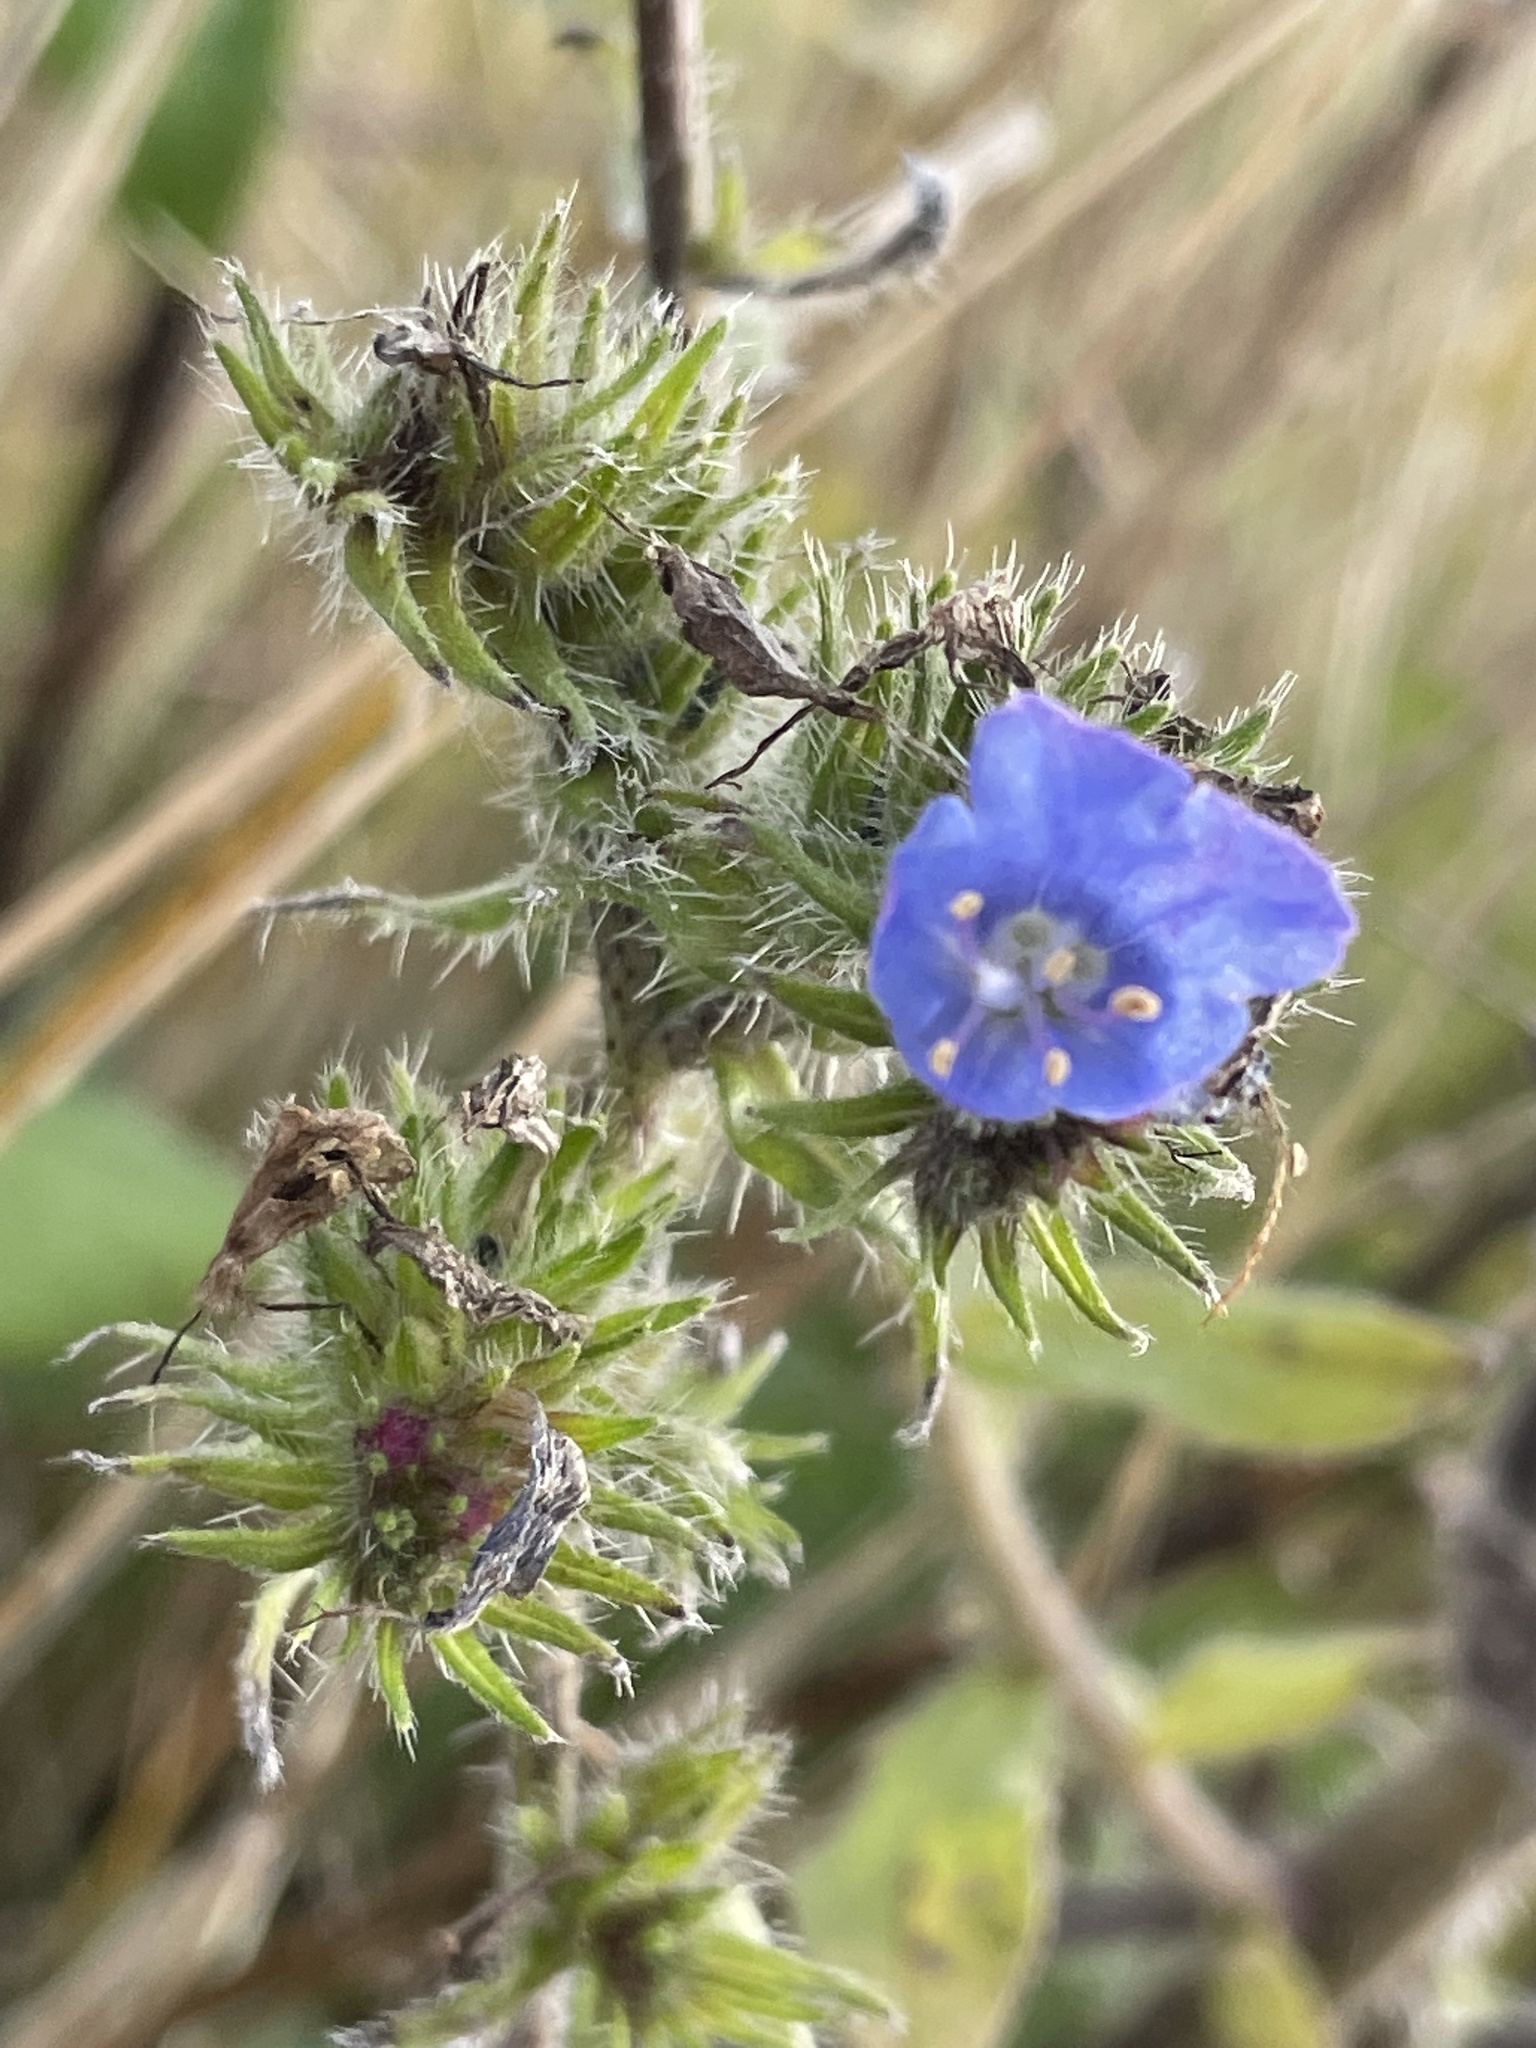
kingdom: Plantae
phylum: Tracheophyta
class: Magnoliopsida
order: Boraginales
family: Boraginaceae
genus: Echium
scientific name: Echium vulgare
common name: Common viper's bugloss
